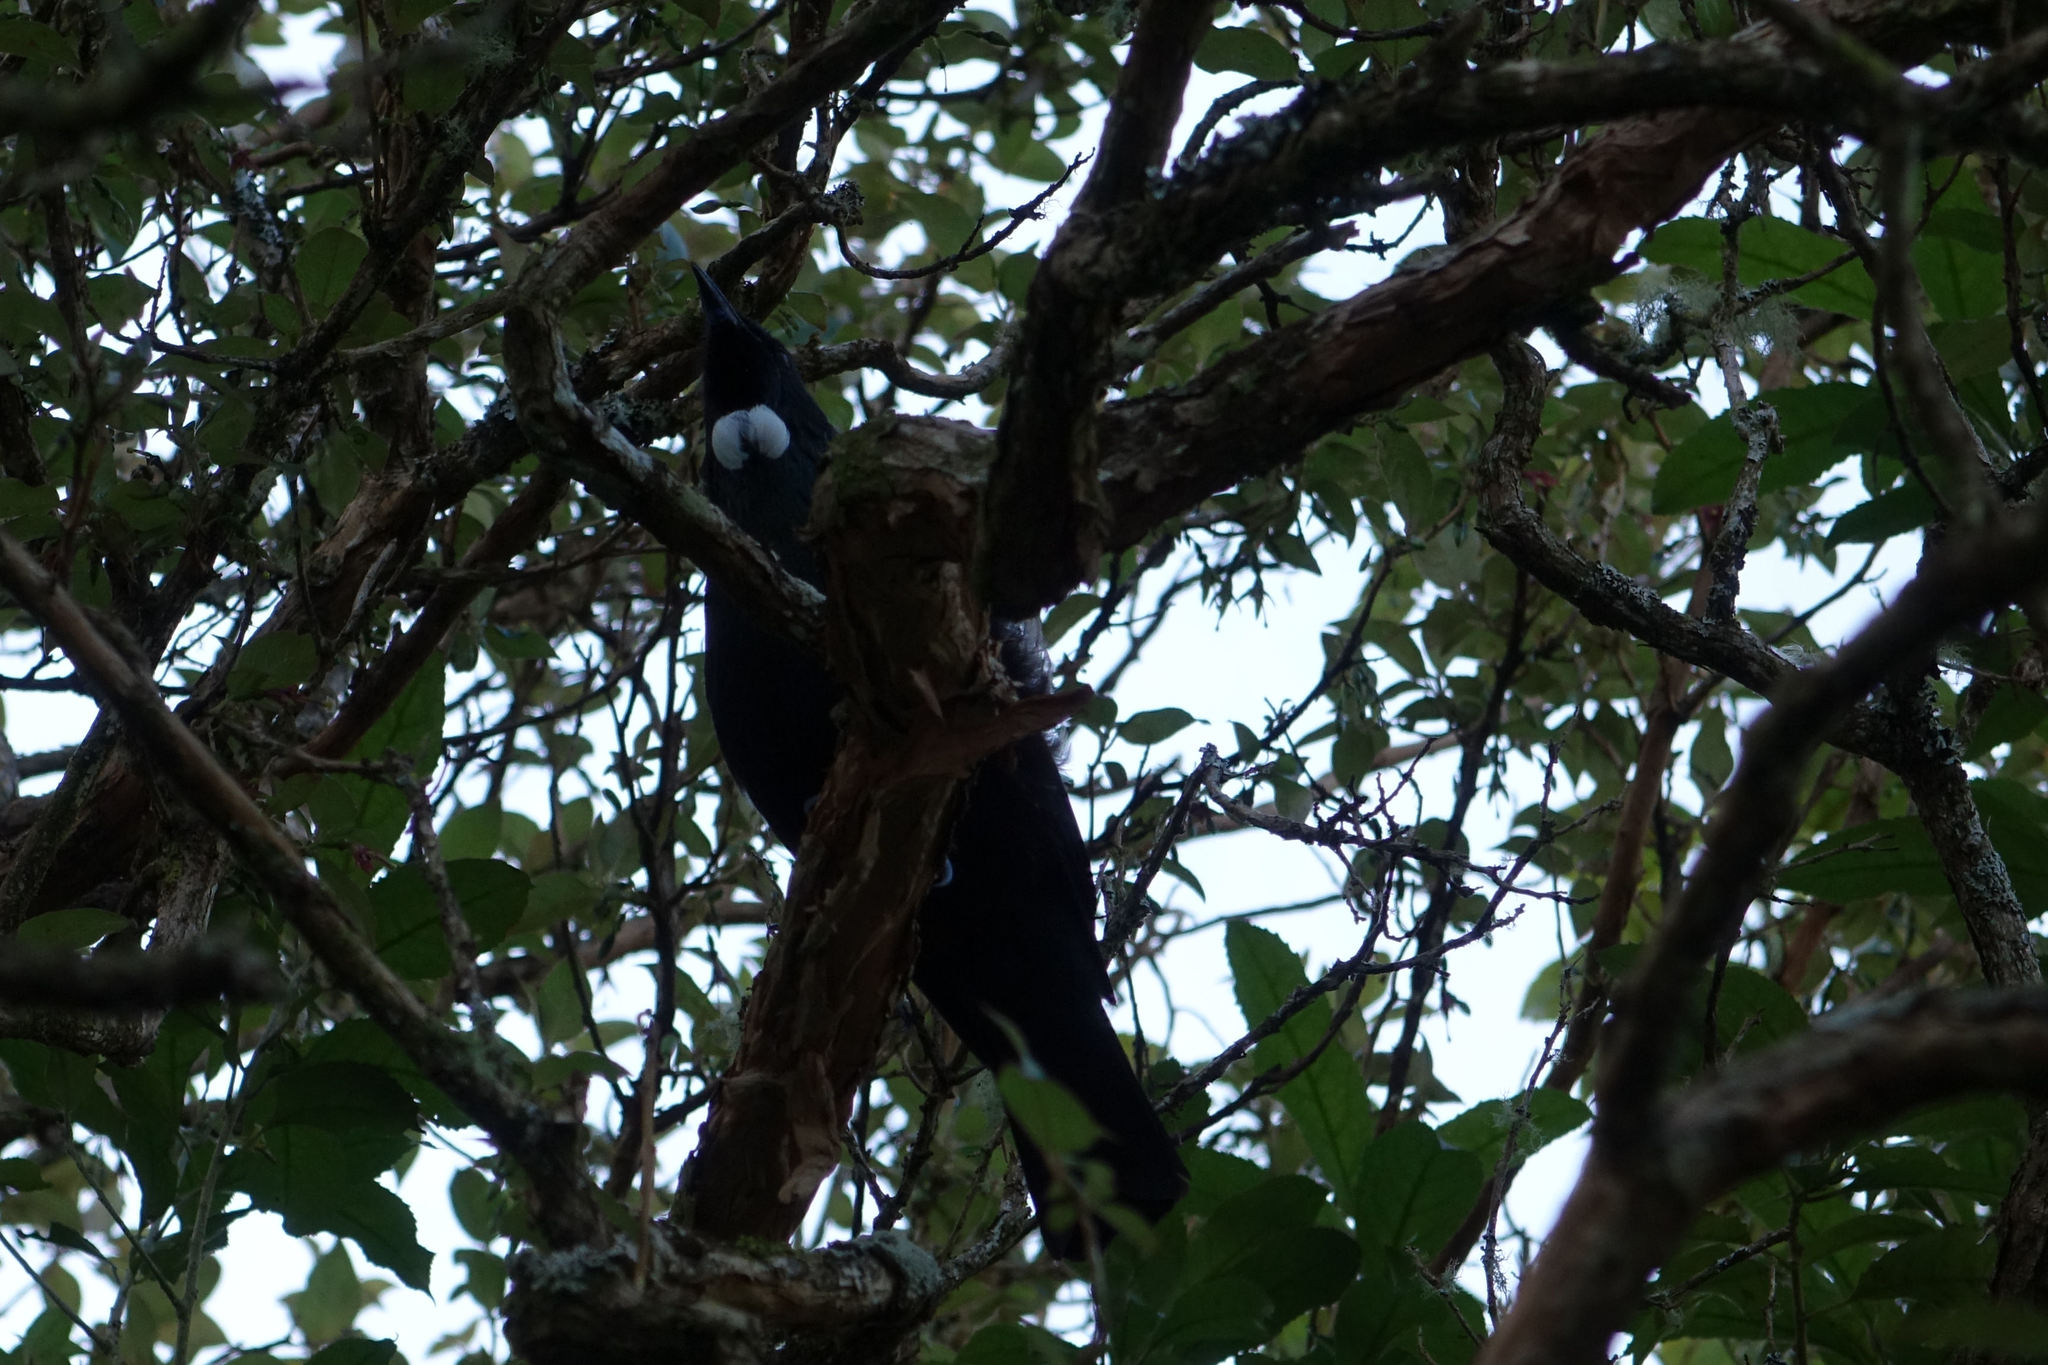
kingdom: Animalia
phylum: Chordata
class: Aves
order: Passeriformes
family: Meliphagidae
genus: Prosthemadera
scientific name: Prosthemadera novaeseelandiae
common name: Tui
